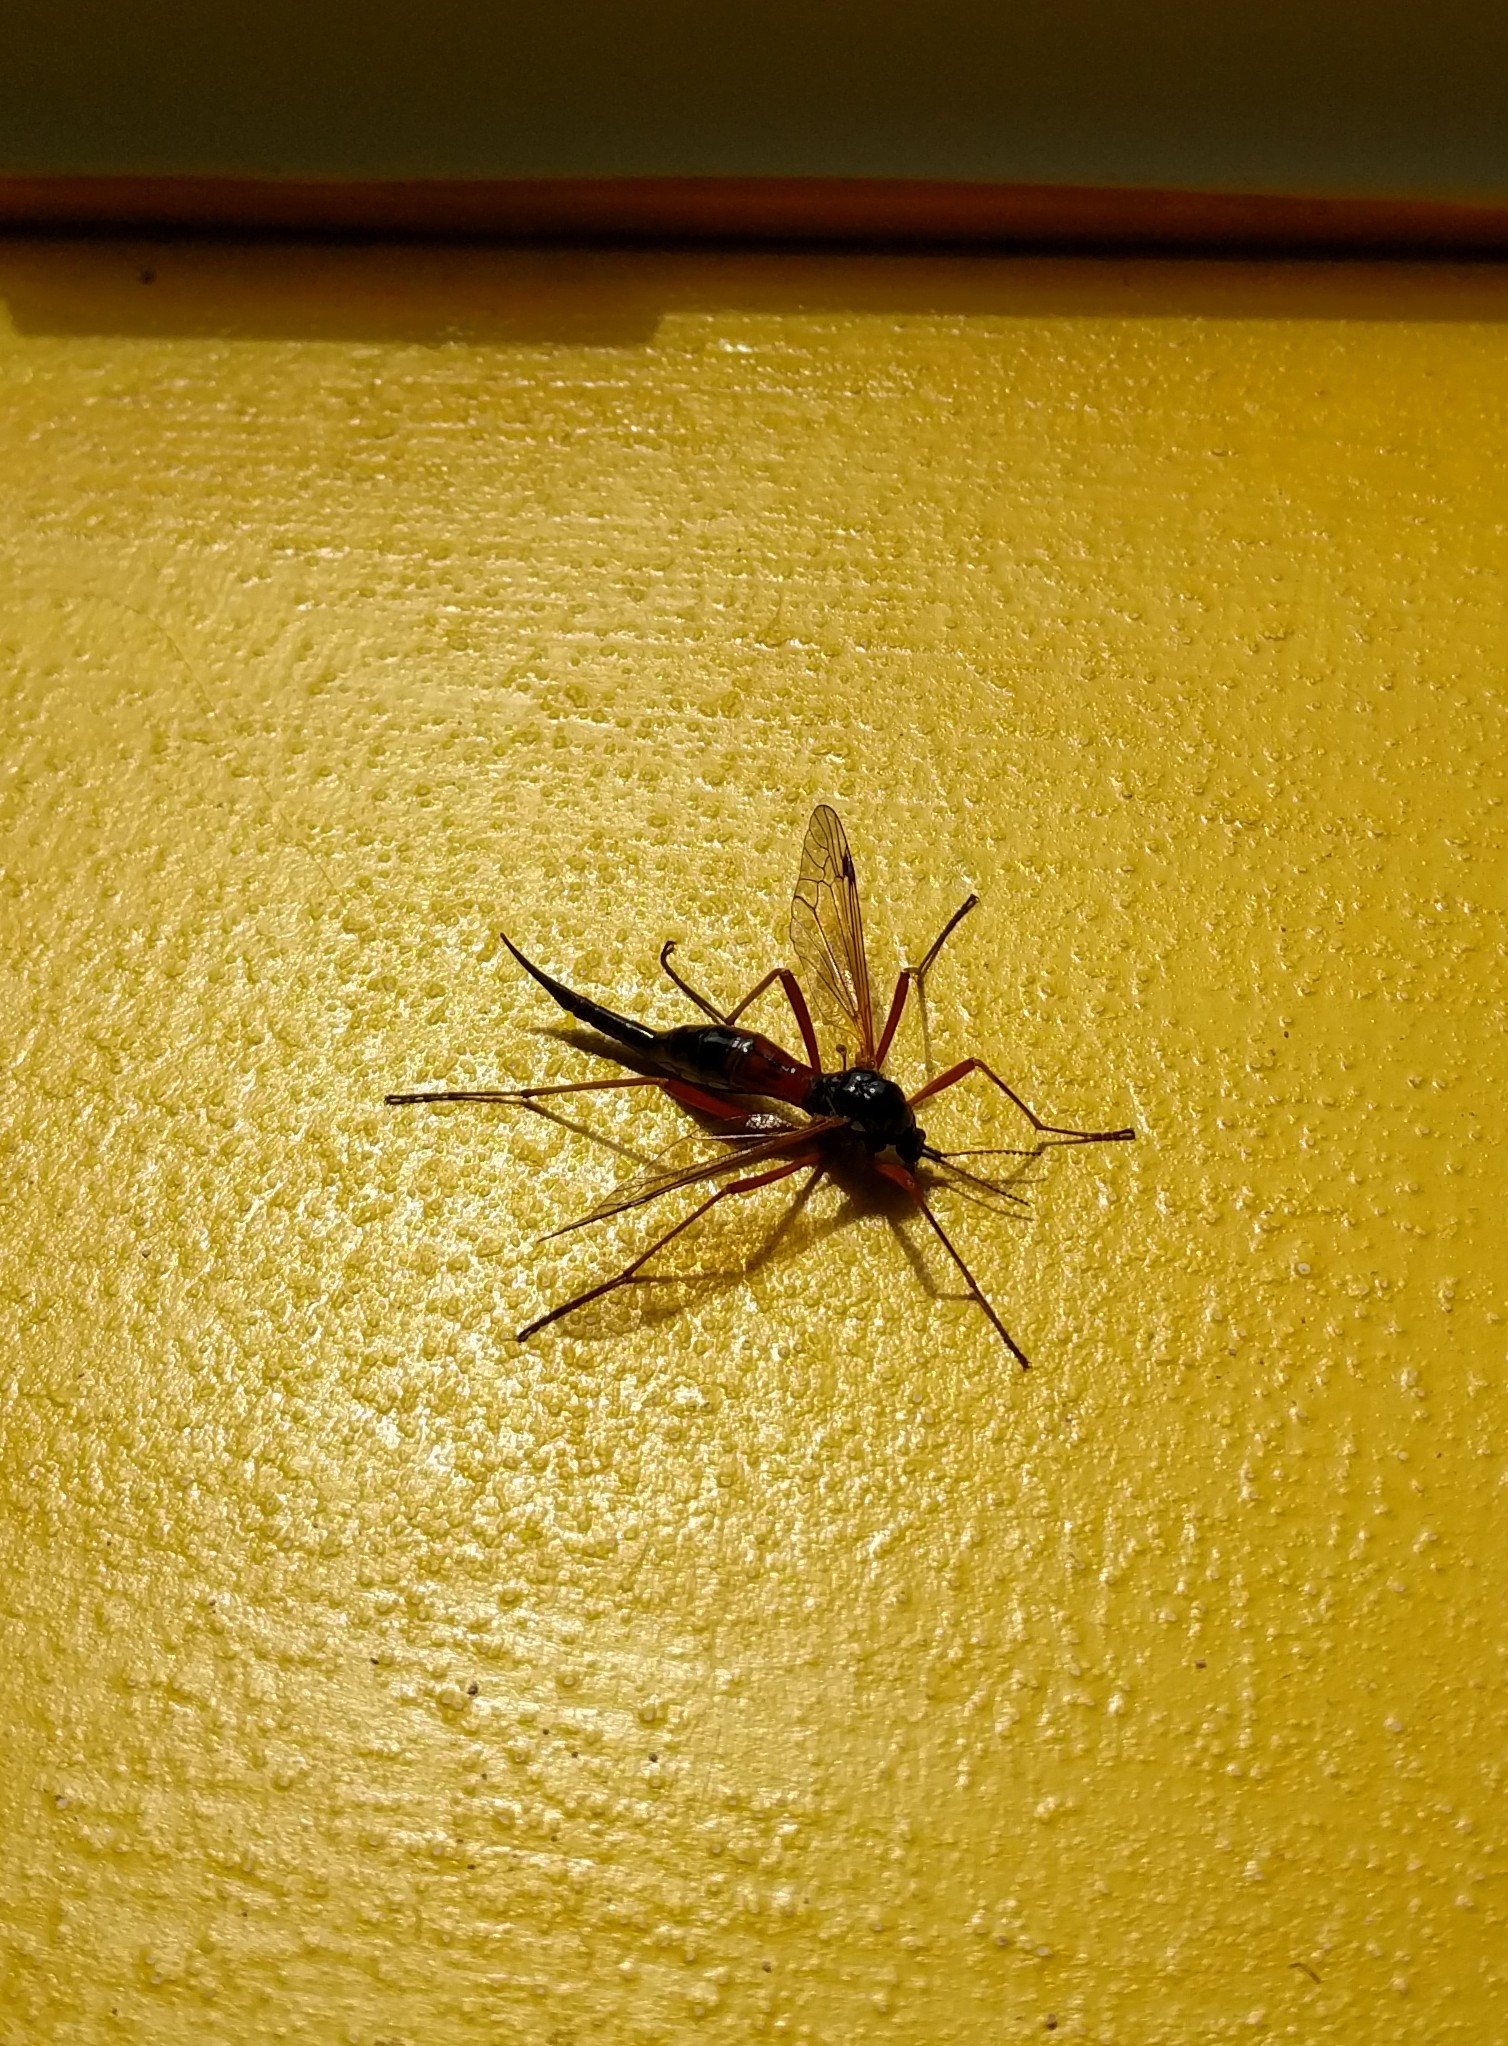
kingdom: Animalia
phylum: Arthropoda
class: Insecta
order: Diptera
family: Tipulidae
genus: Tanyptera
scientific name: Tanyptera atrata
